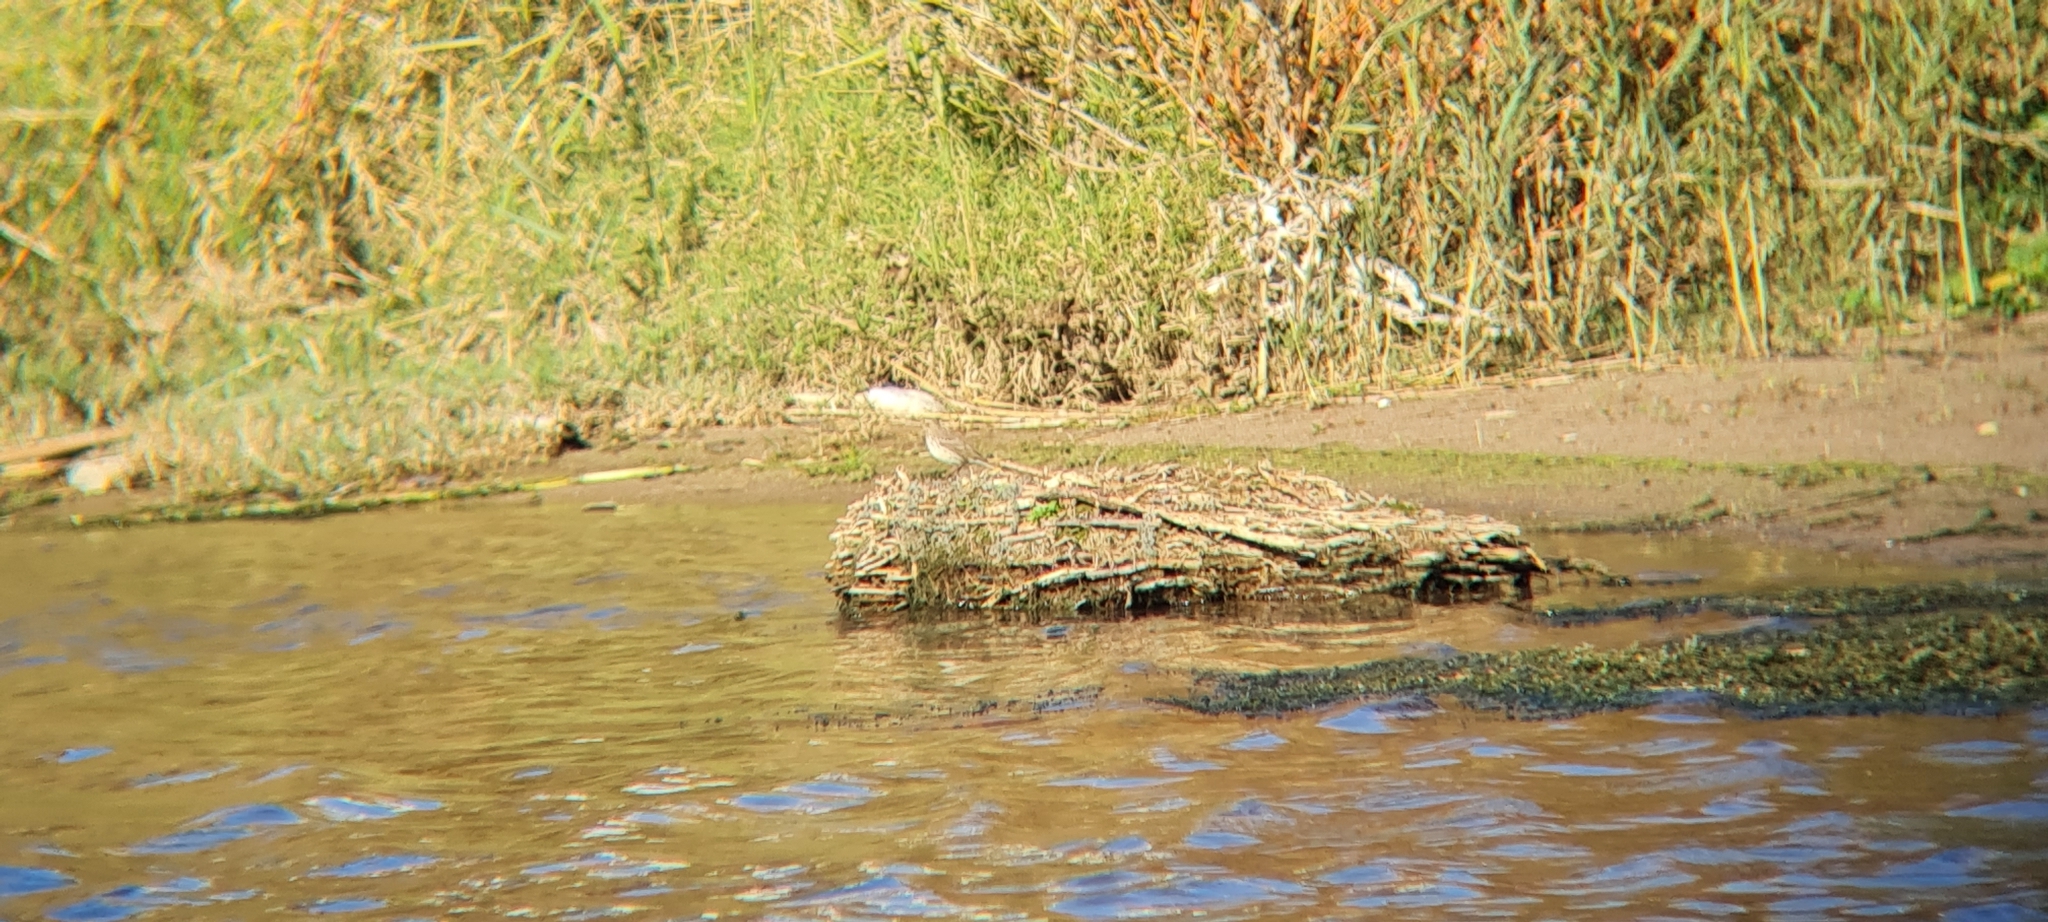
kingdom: Animalia
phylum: Chordata
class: Aves
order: Passeriformes
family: Motacillidae
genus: Anthus
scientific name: Anthus spinoletta
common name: Water pipit
